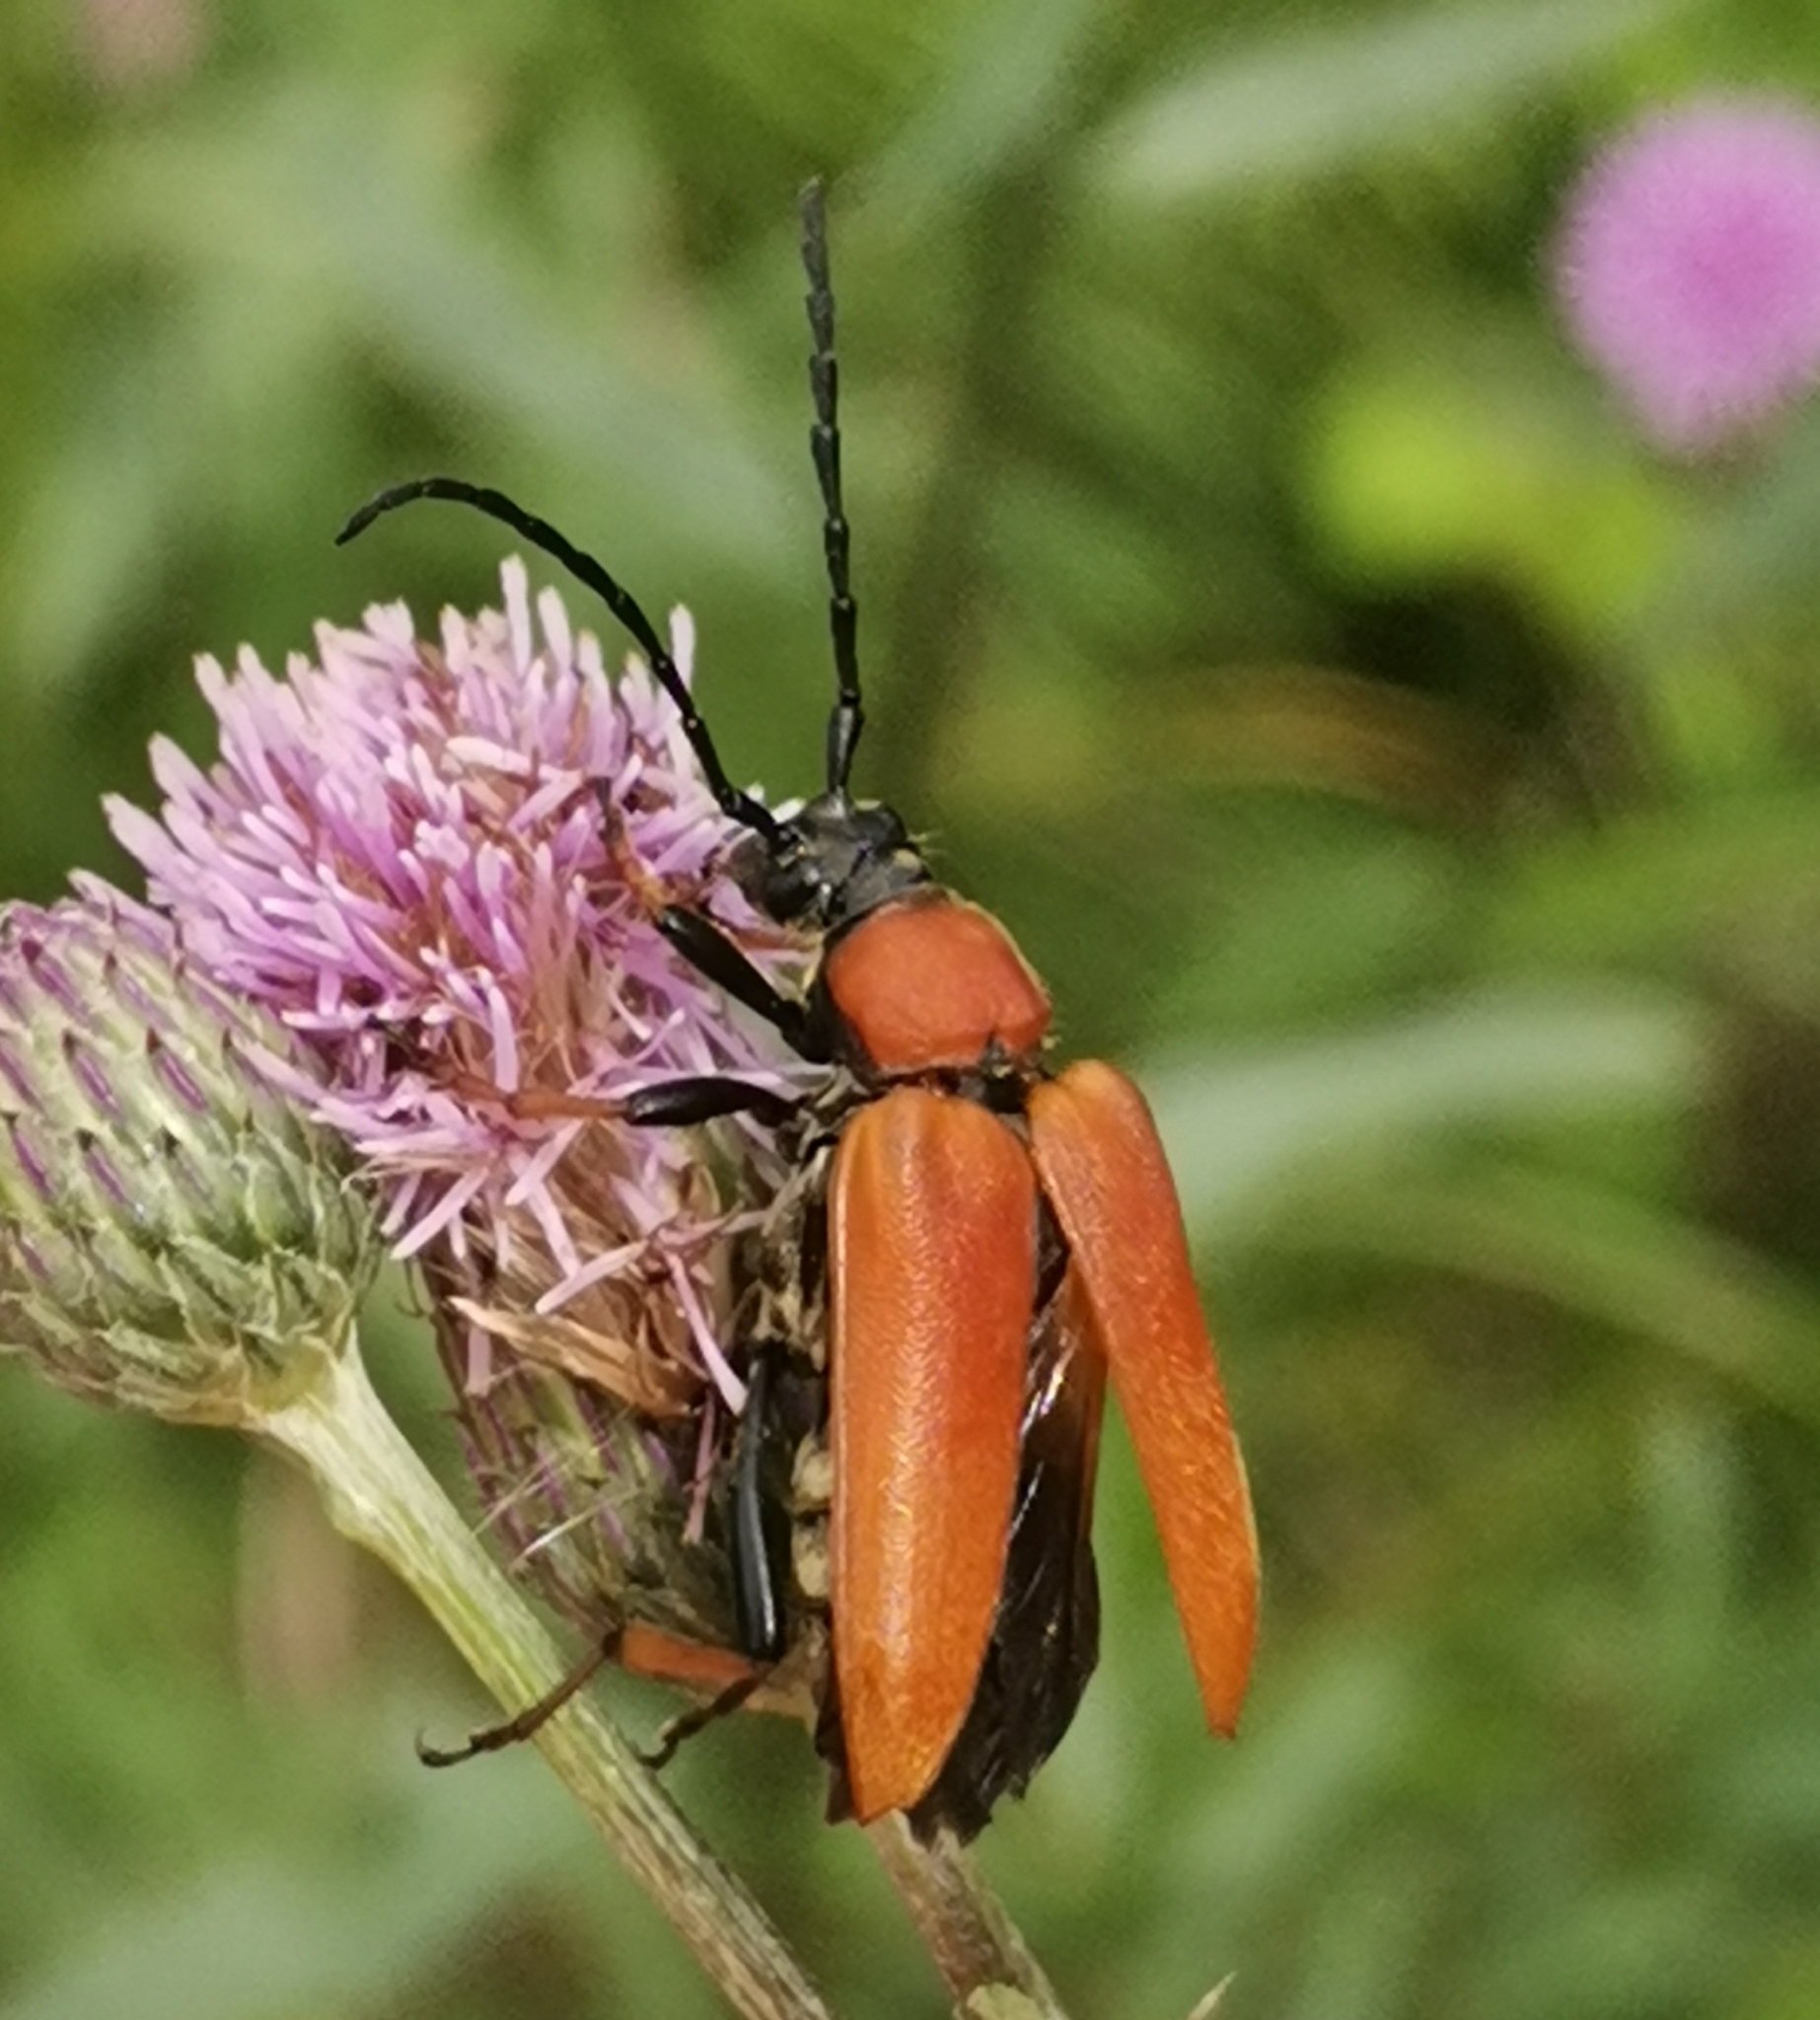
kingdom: Animalia
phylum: Arthropoda
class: Insecta
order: Coleoptera
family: Cerambycidae
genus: Stictoleptura
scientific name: Stictoleptura rubra
